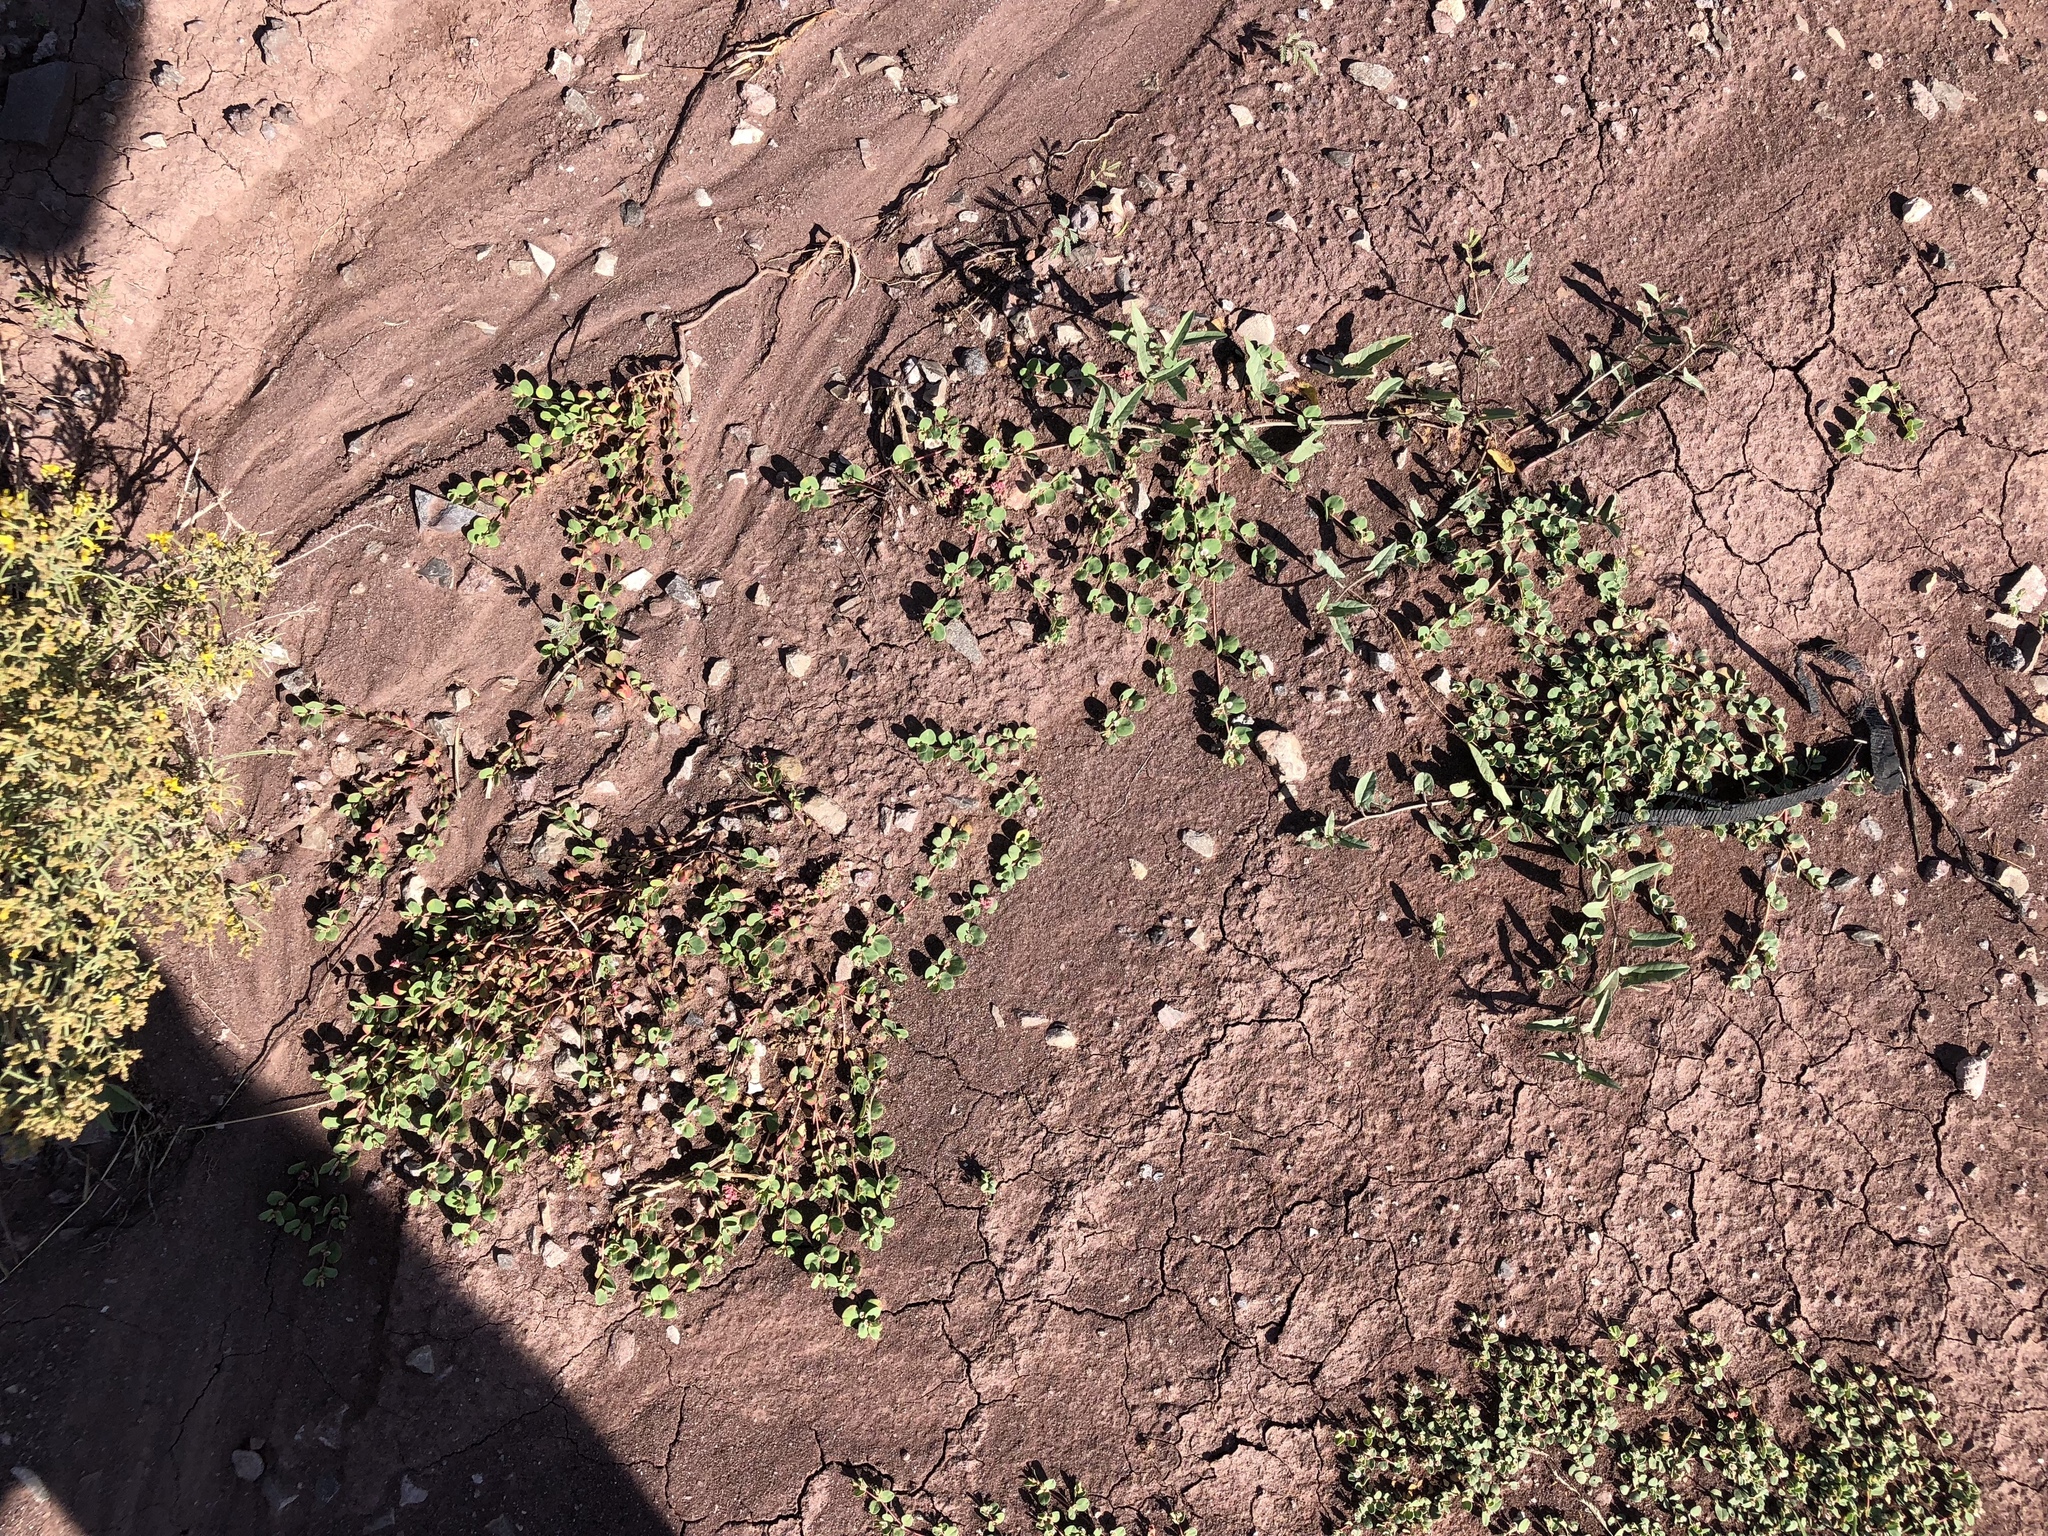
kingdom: Plantae
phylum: Tracheophyta
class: Magnoliopsida
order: Malpighiales
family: Euphorbiaceae
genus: Euphorbia
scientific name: Euphorbia albomarginata
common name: Whitemargin sandmat
